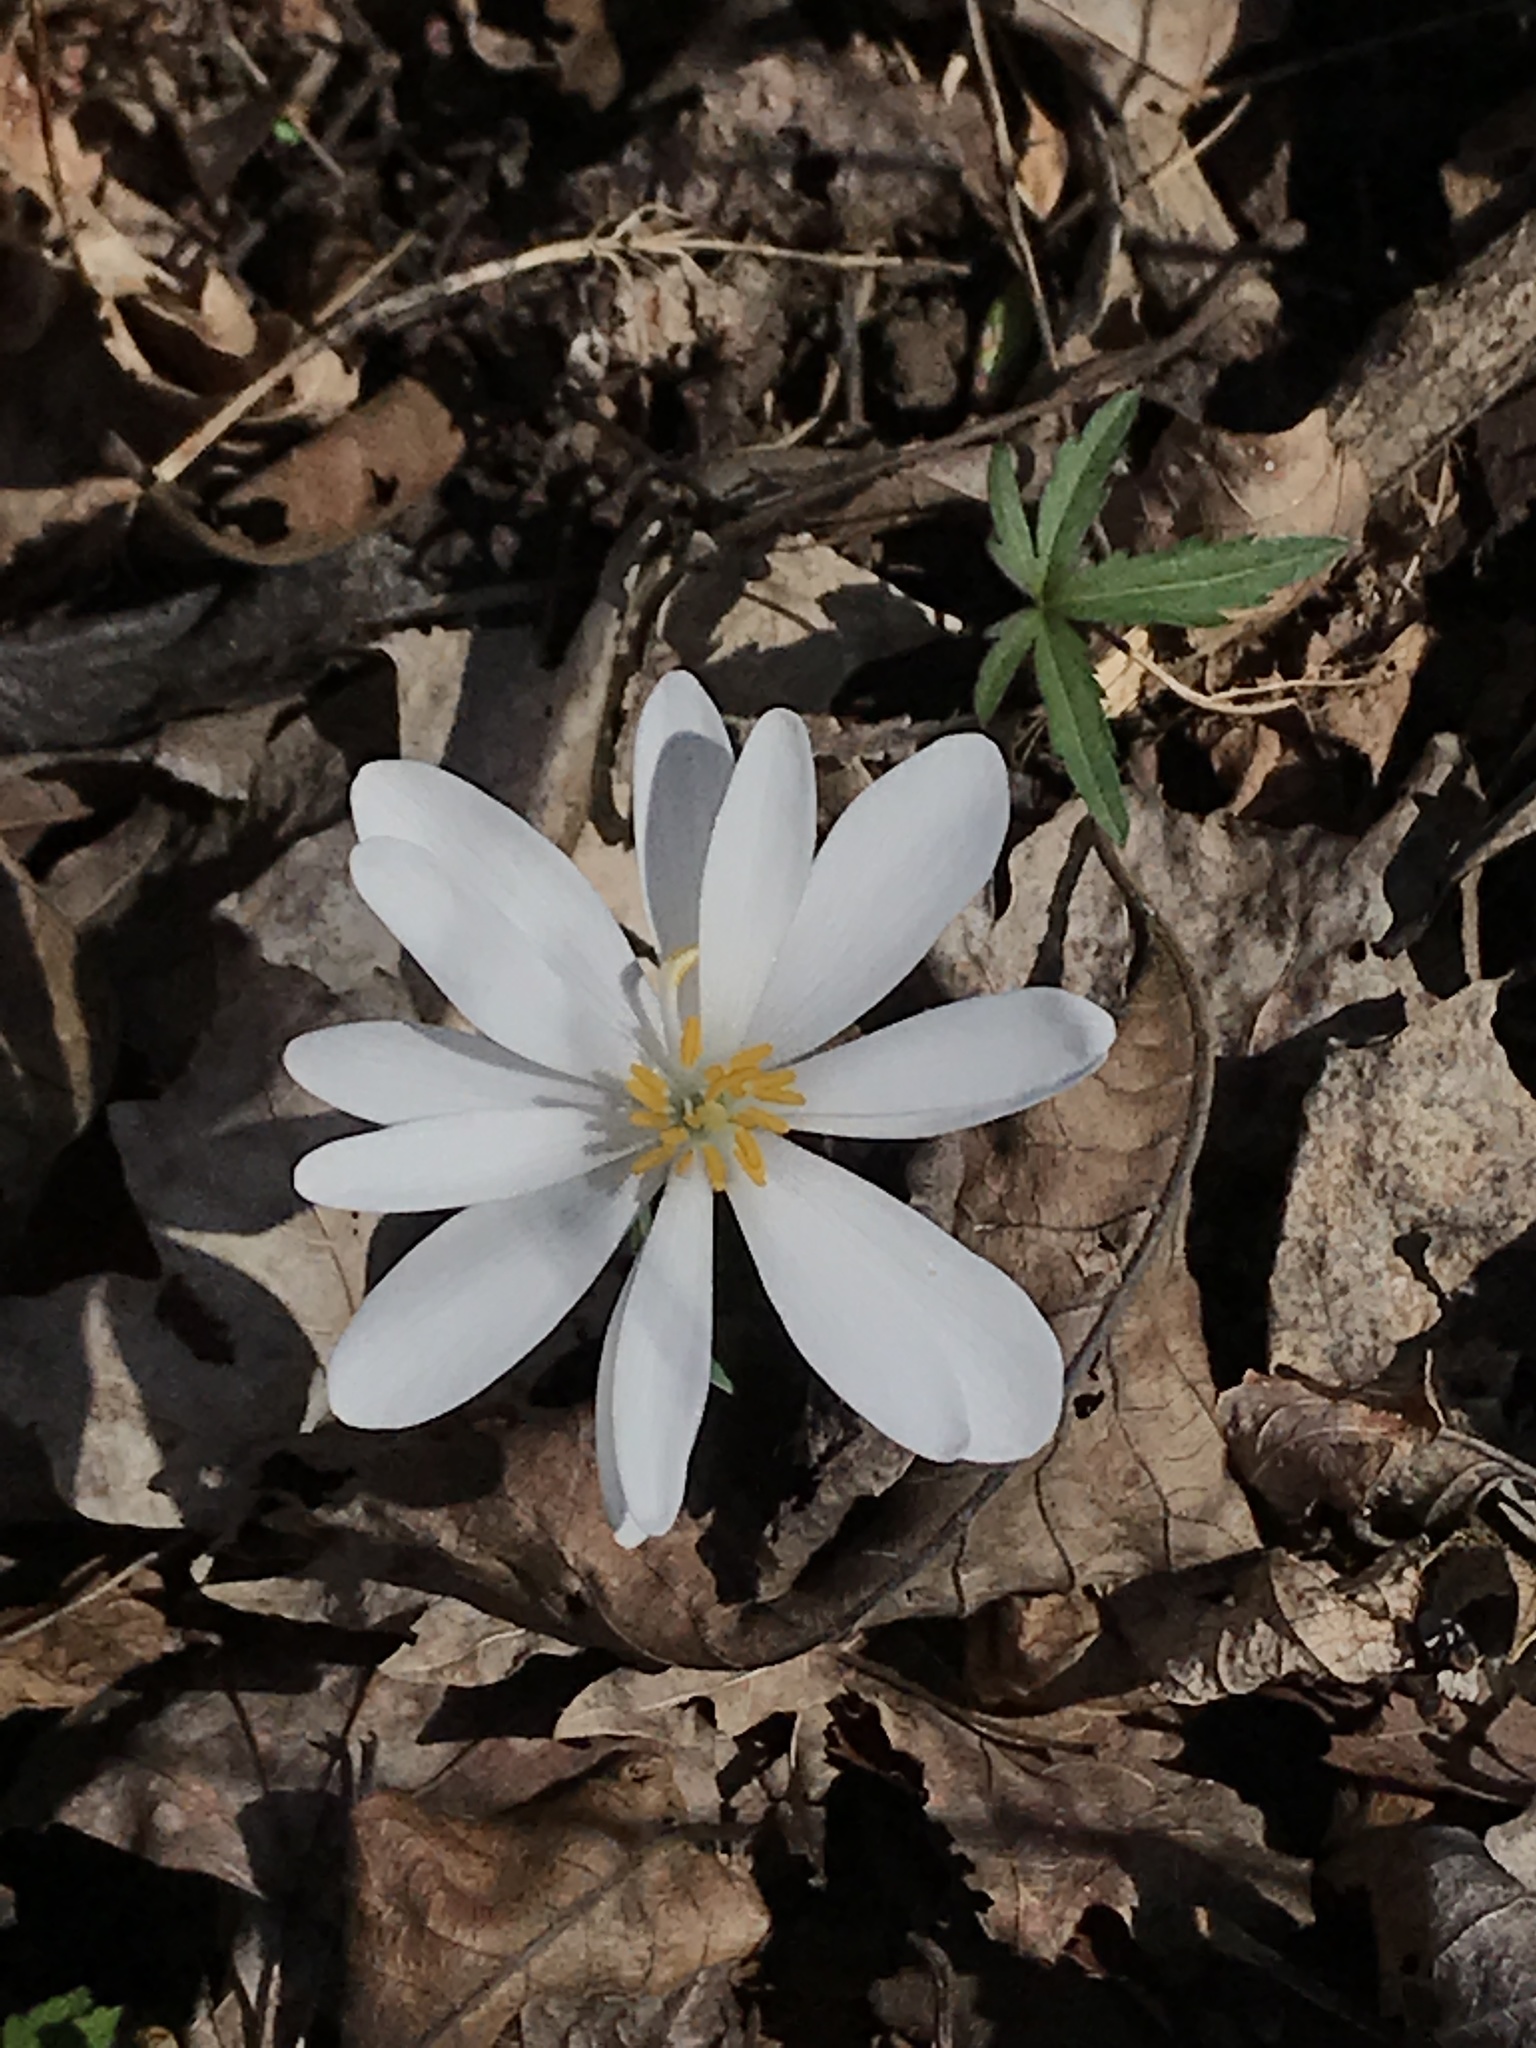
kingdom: Plantae
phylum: Tracheophyta
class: Magnoliopsida
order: Ranunculales
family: Papaveraceae
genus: Sanguinaria
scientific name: Sanguinaria canadensis
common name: Bloodroot
